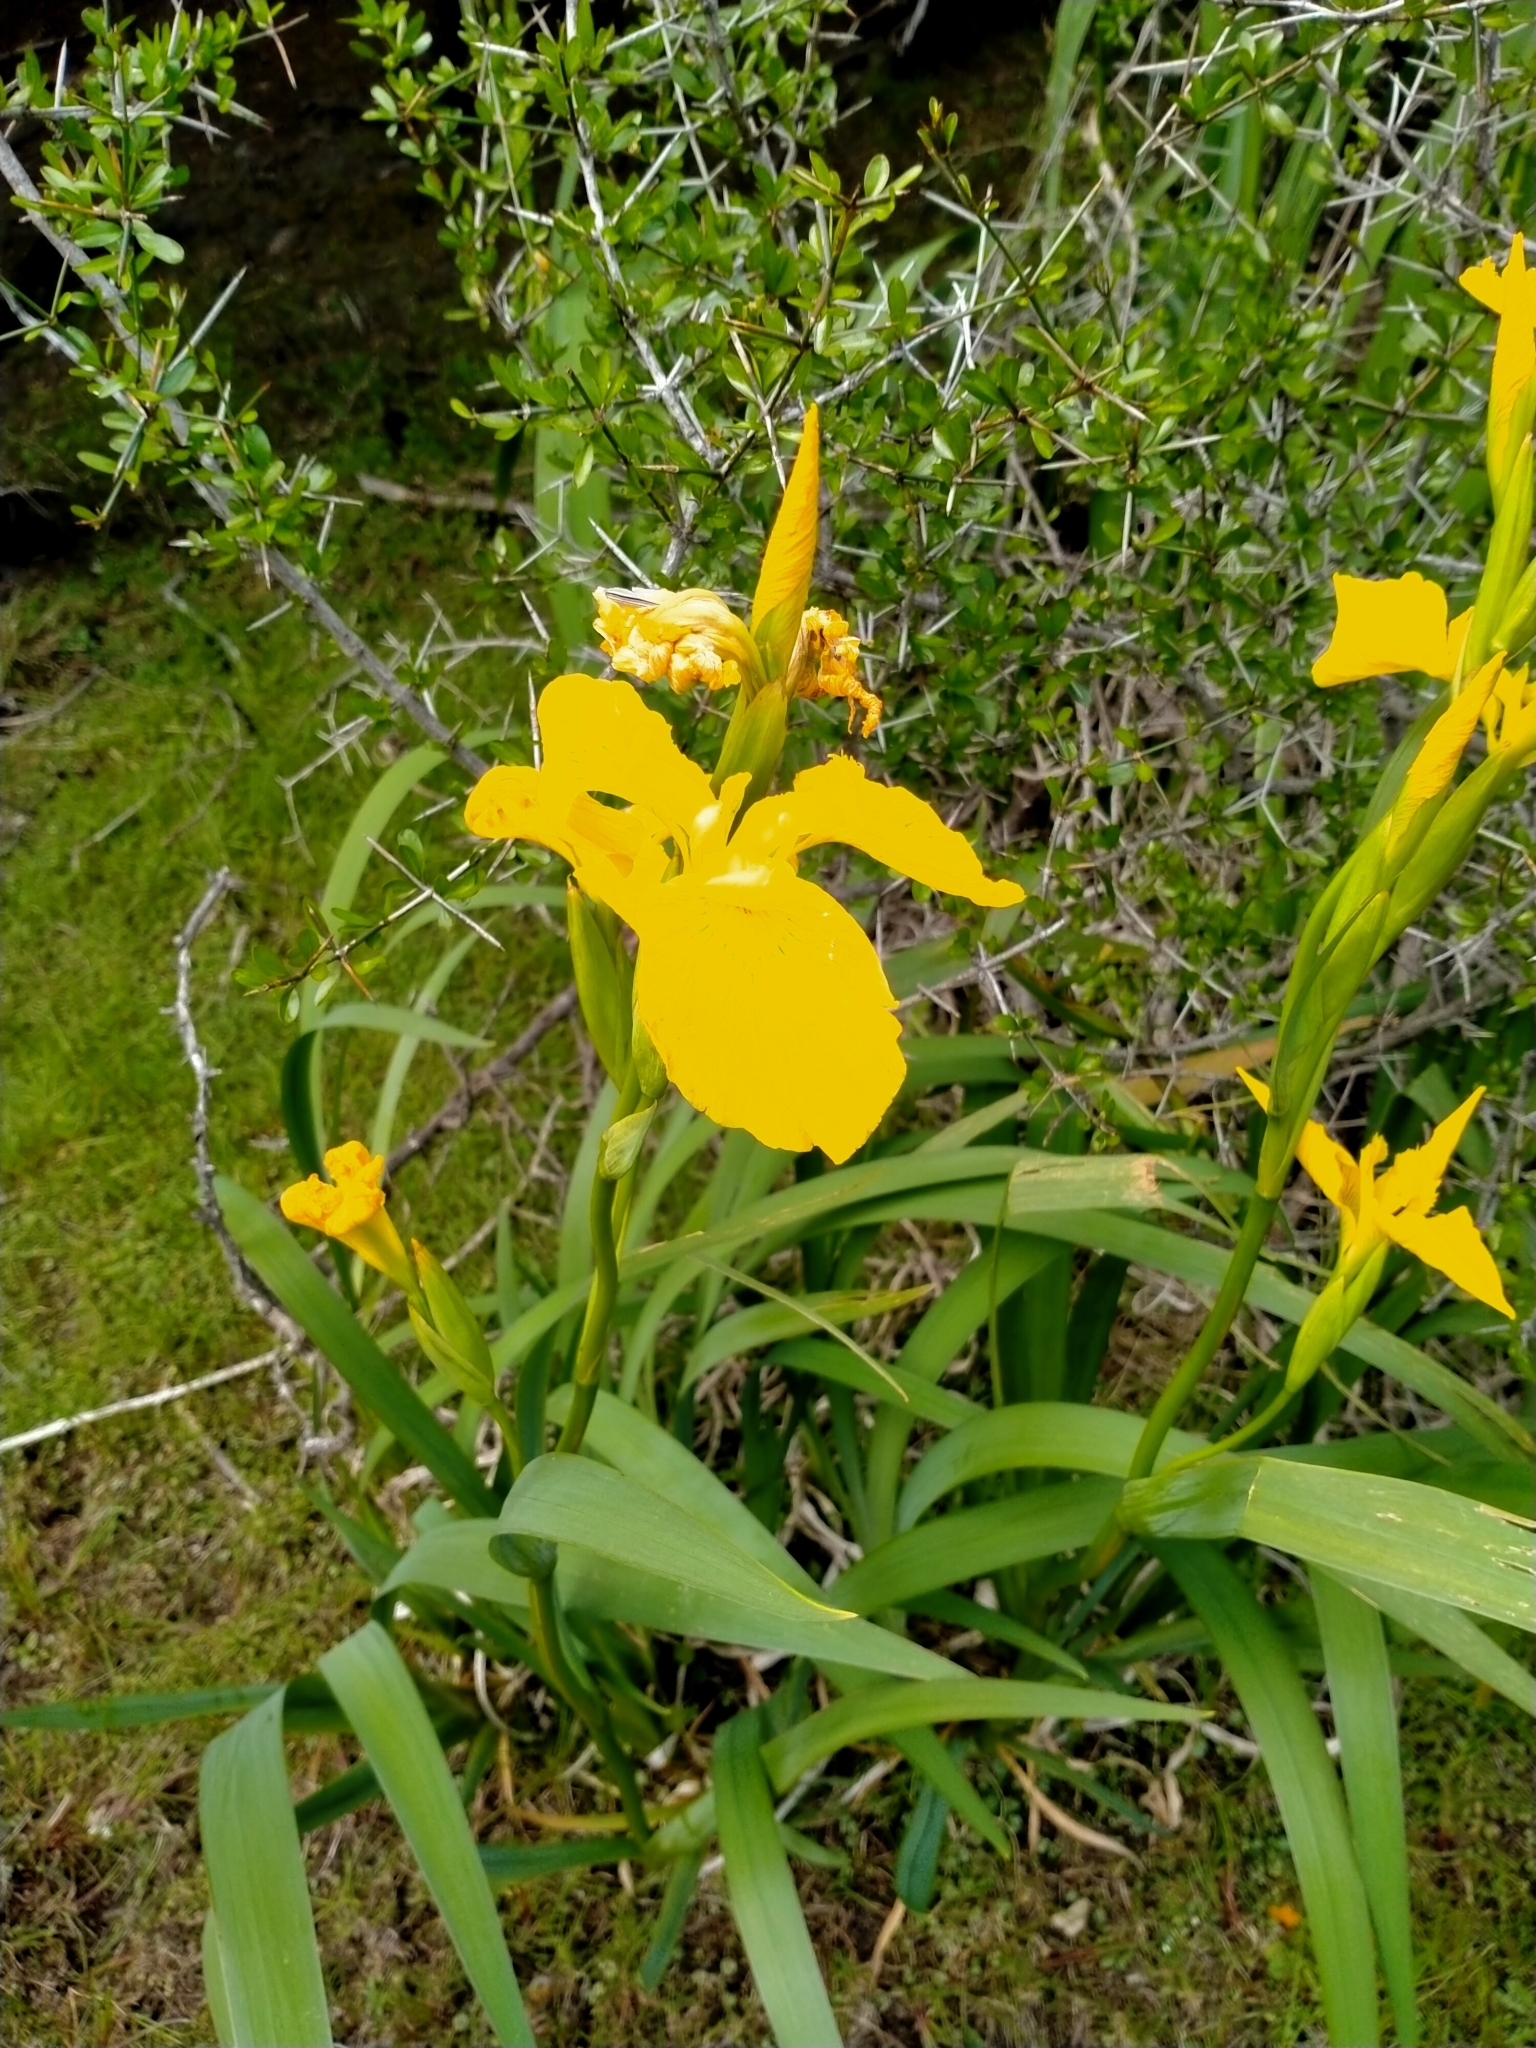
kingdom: Plantae
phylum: Tracheophyta
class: Liliopsida
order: Asparagales
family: Iridaceae
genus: Iris
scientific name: Iris pseudacorus
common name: Yellow flag
